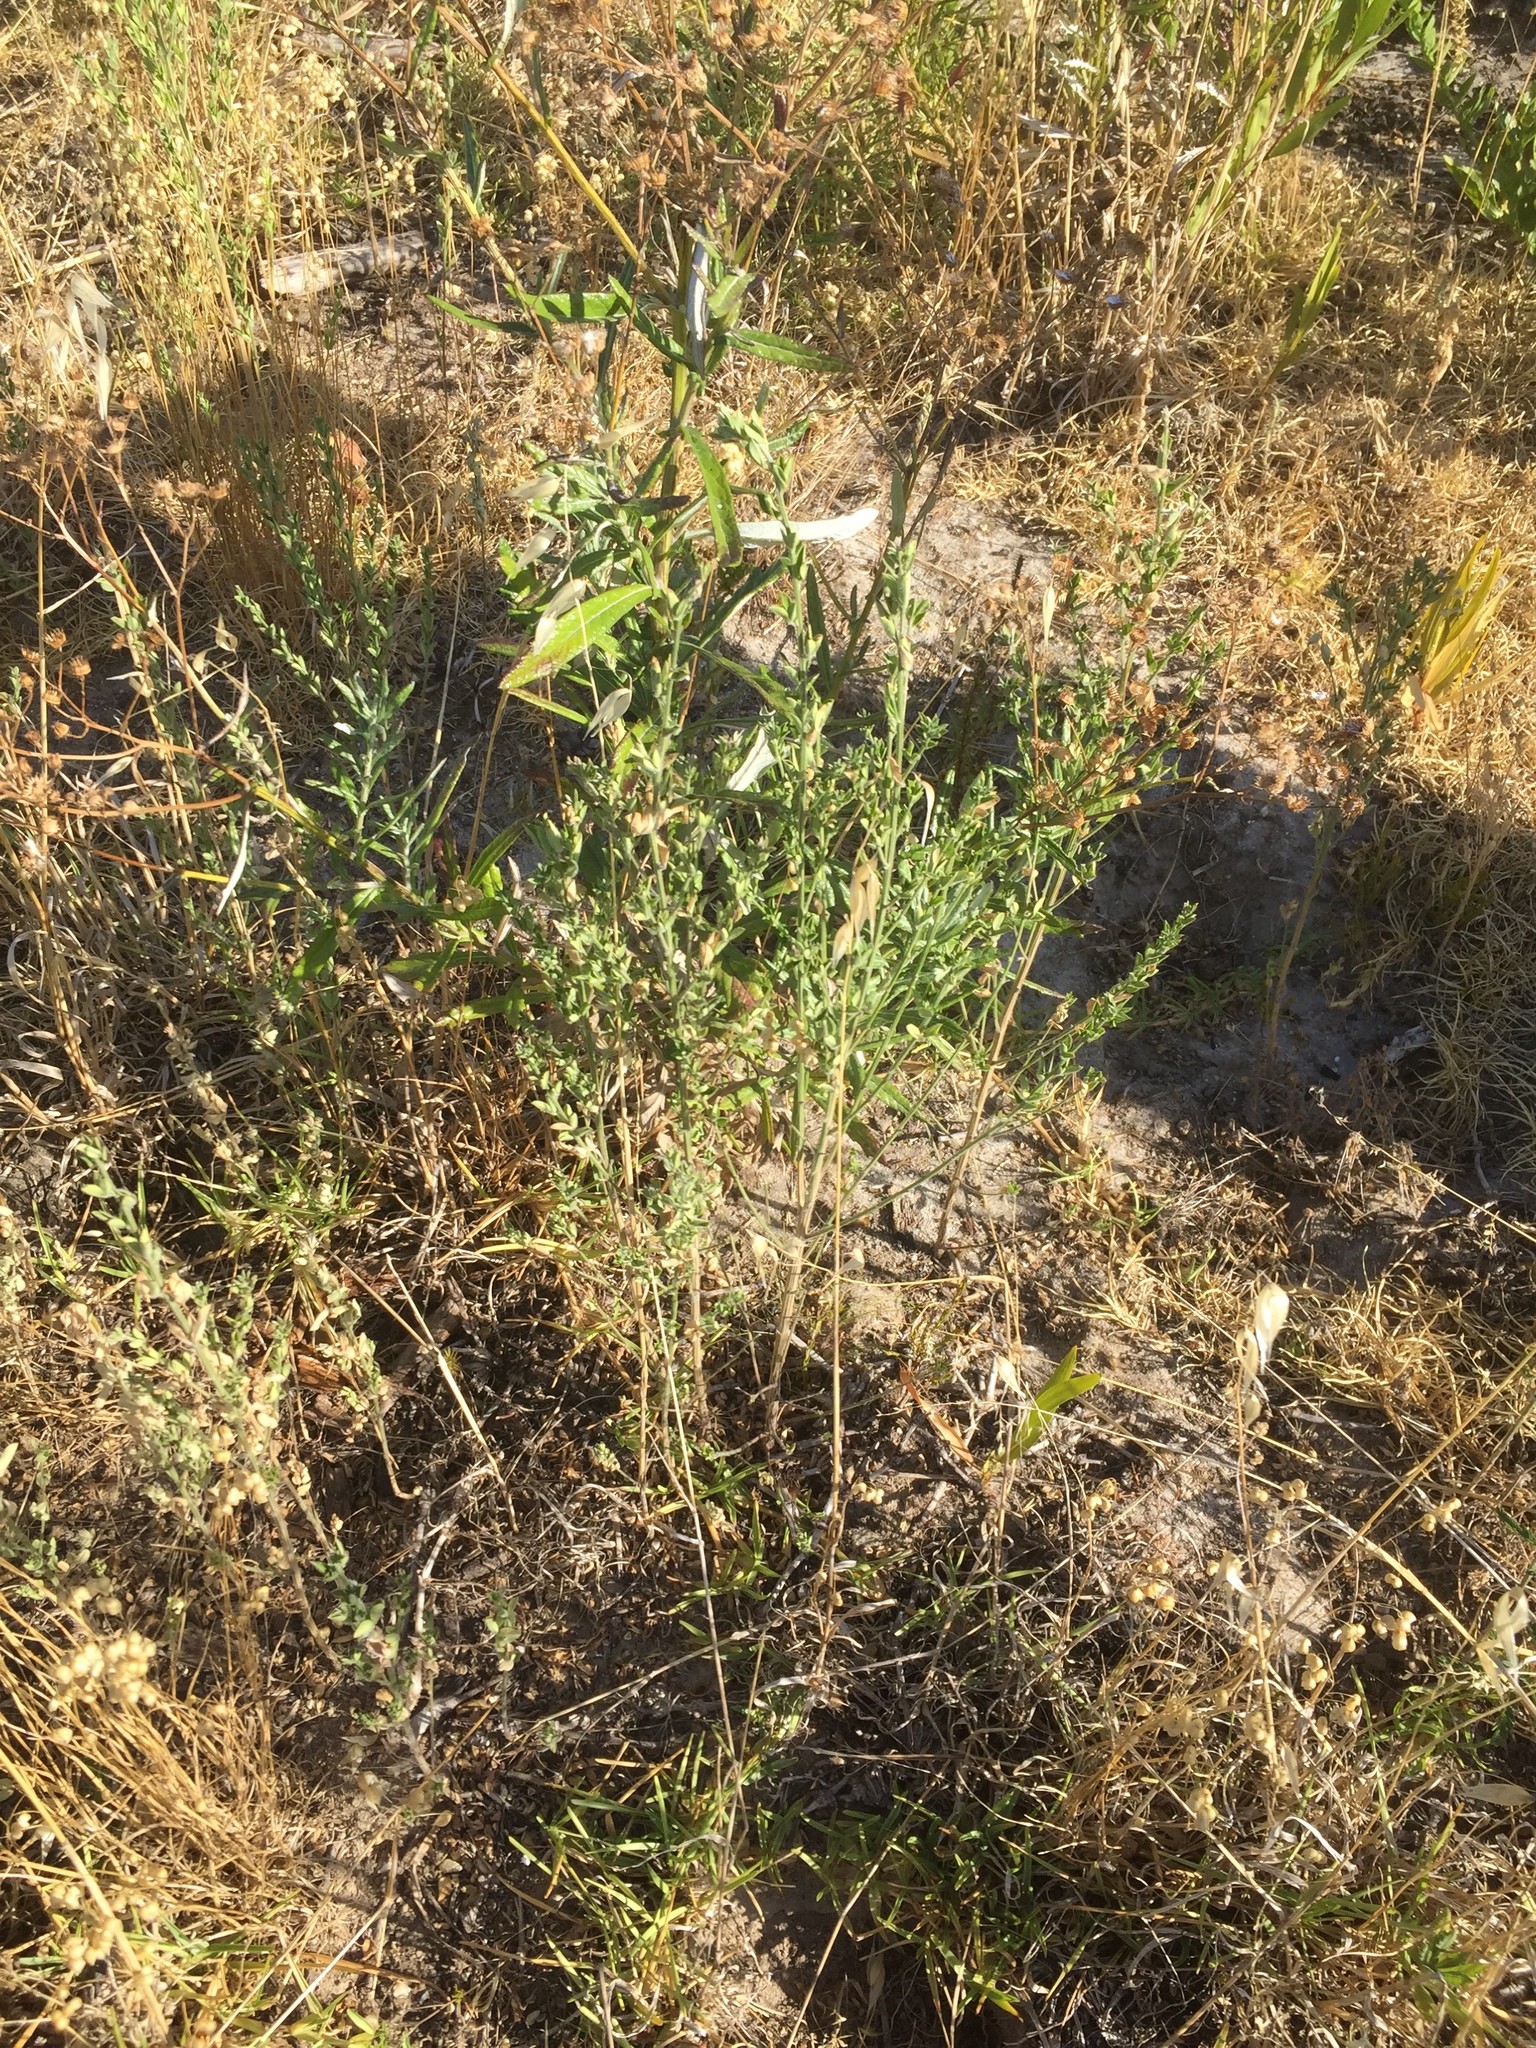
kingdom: Plantae
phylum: Tracheophyta
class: Magnoliopsida
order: Fabales
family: Fabaceae
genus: Genista
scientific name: Genista monspessulana
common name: Montpellier broom
